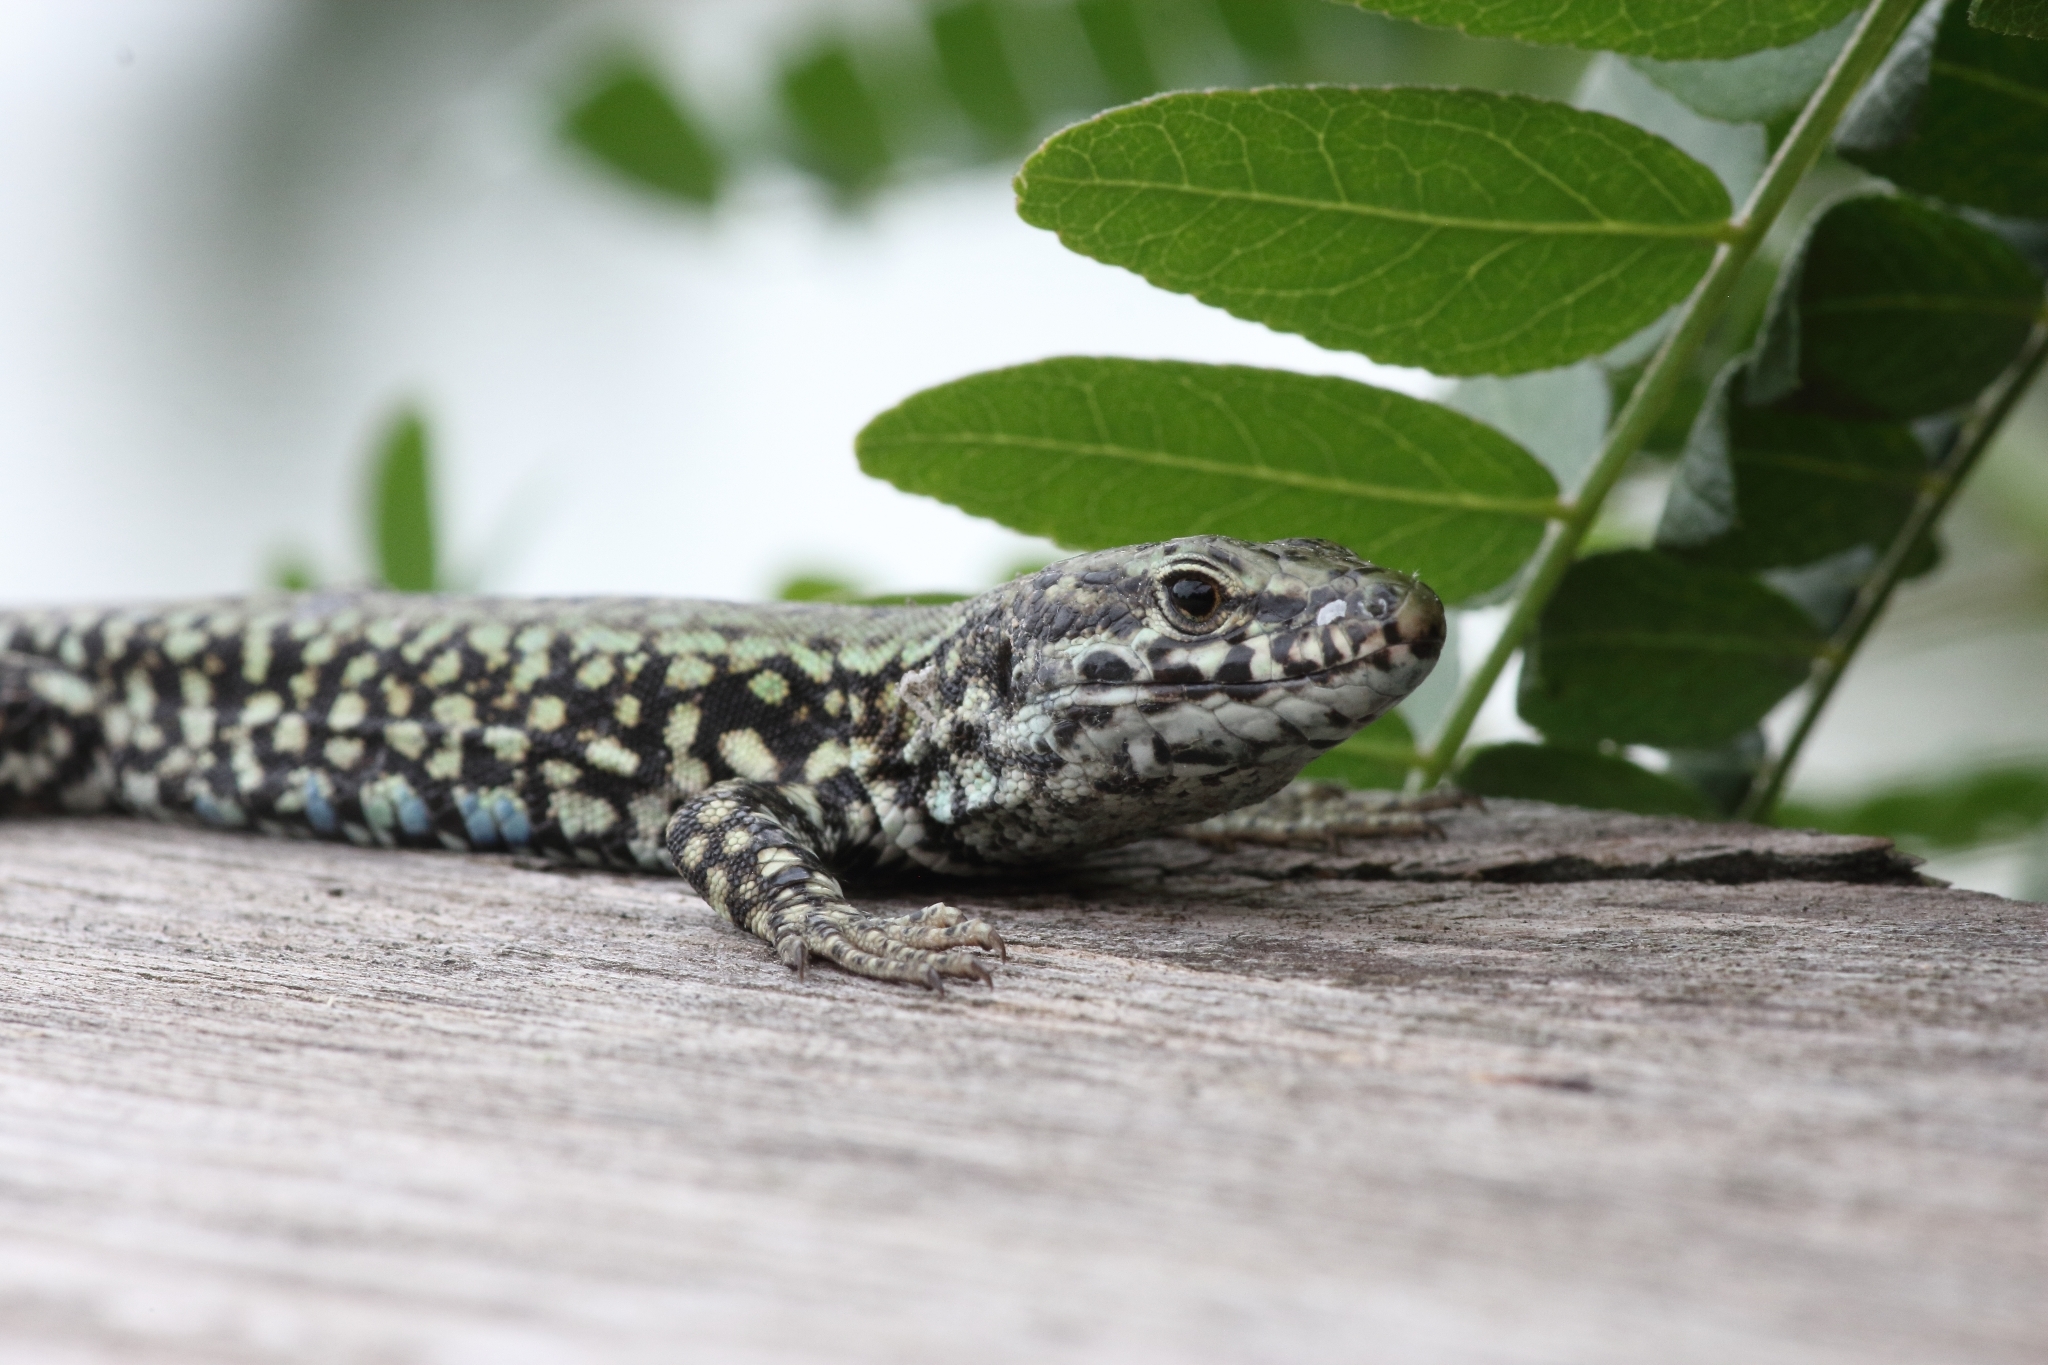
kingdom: Animalia
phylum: Chordata
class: Squamata
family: Lacertidae
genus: Podarcis
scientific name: Podarcis muralis
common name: Common wall lizard
